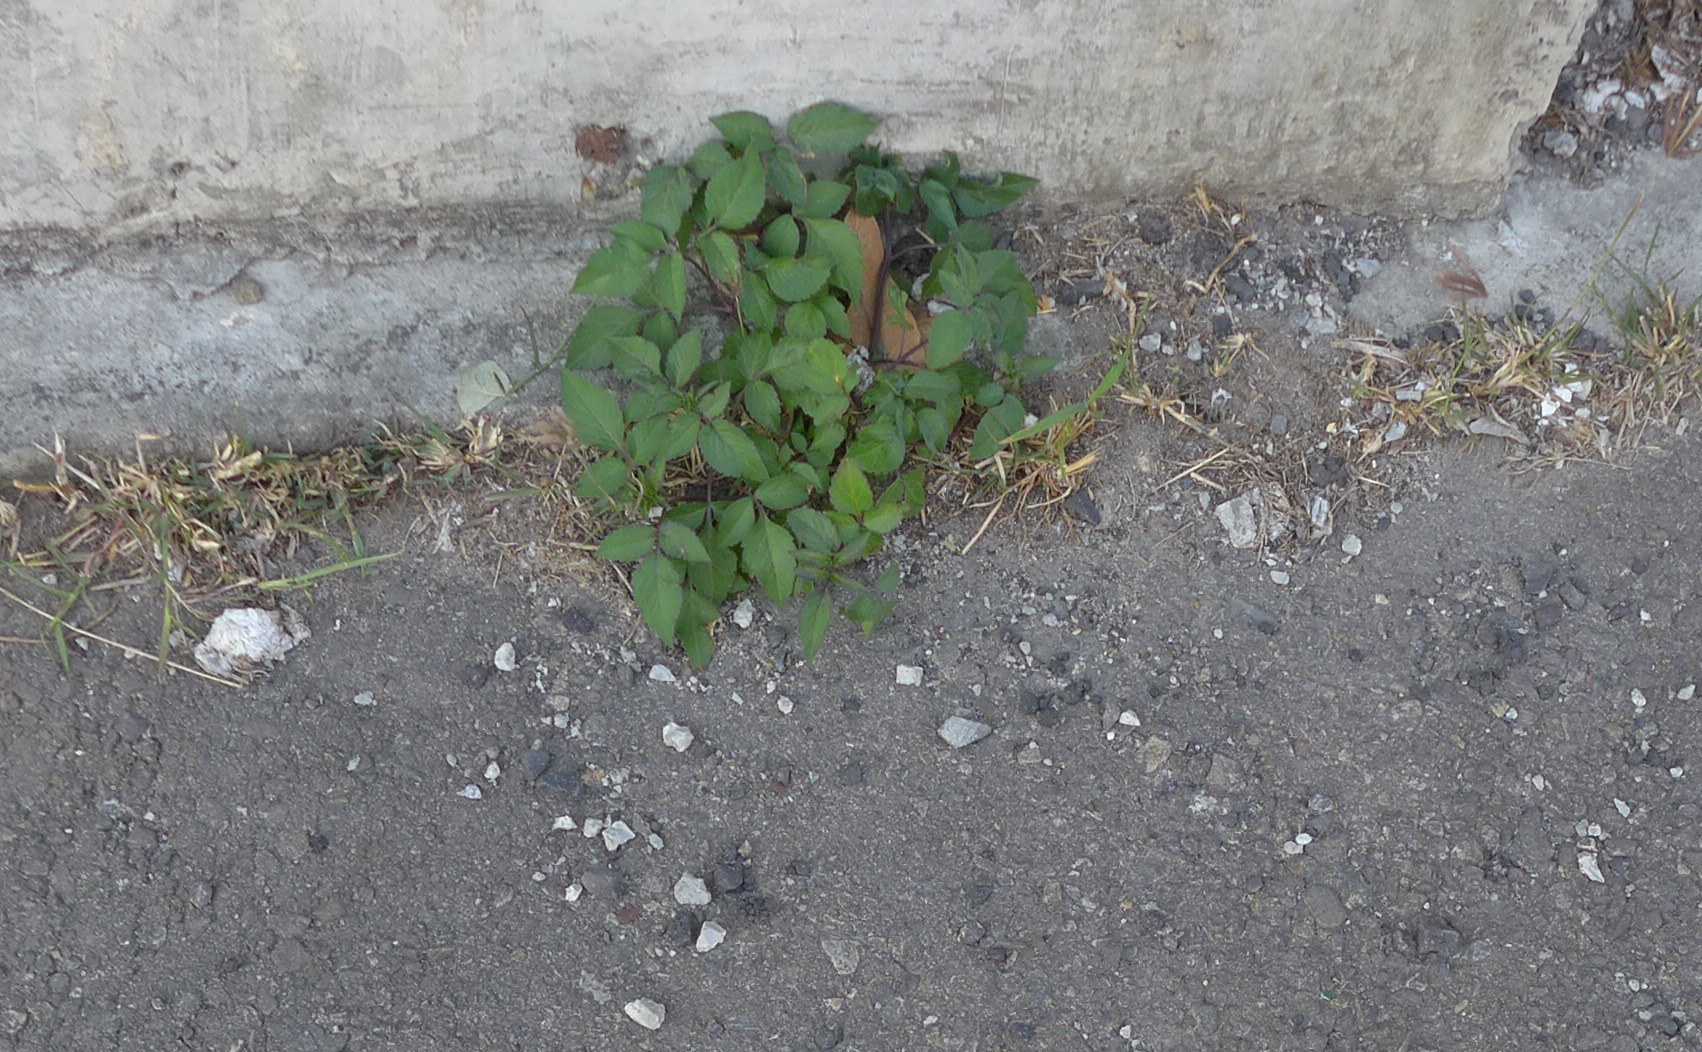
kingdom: Plantae
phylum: Tracheophyta
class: Magnoliopsida
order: Asterales
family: Asteraceae
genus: Bidens
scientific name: Bidens alba
